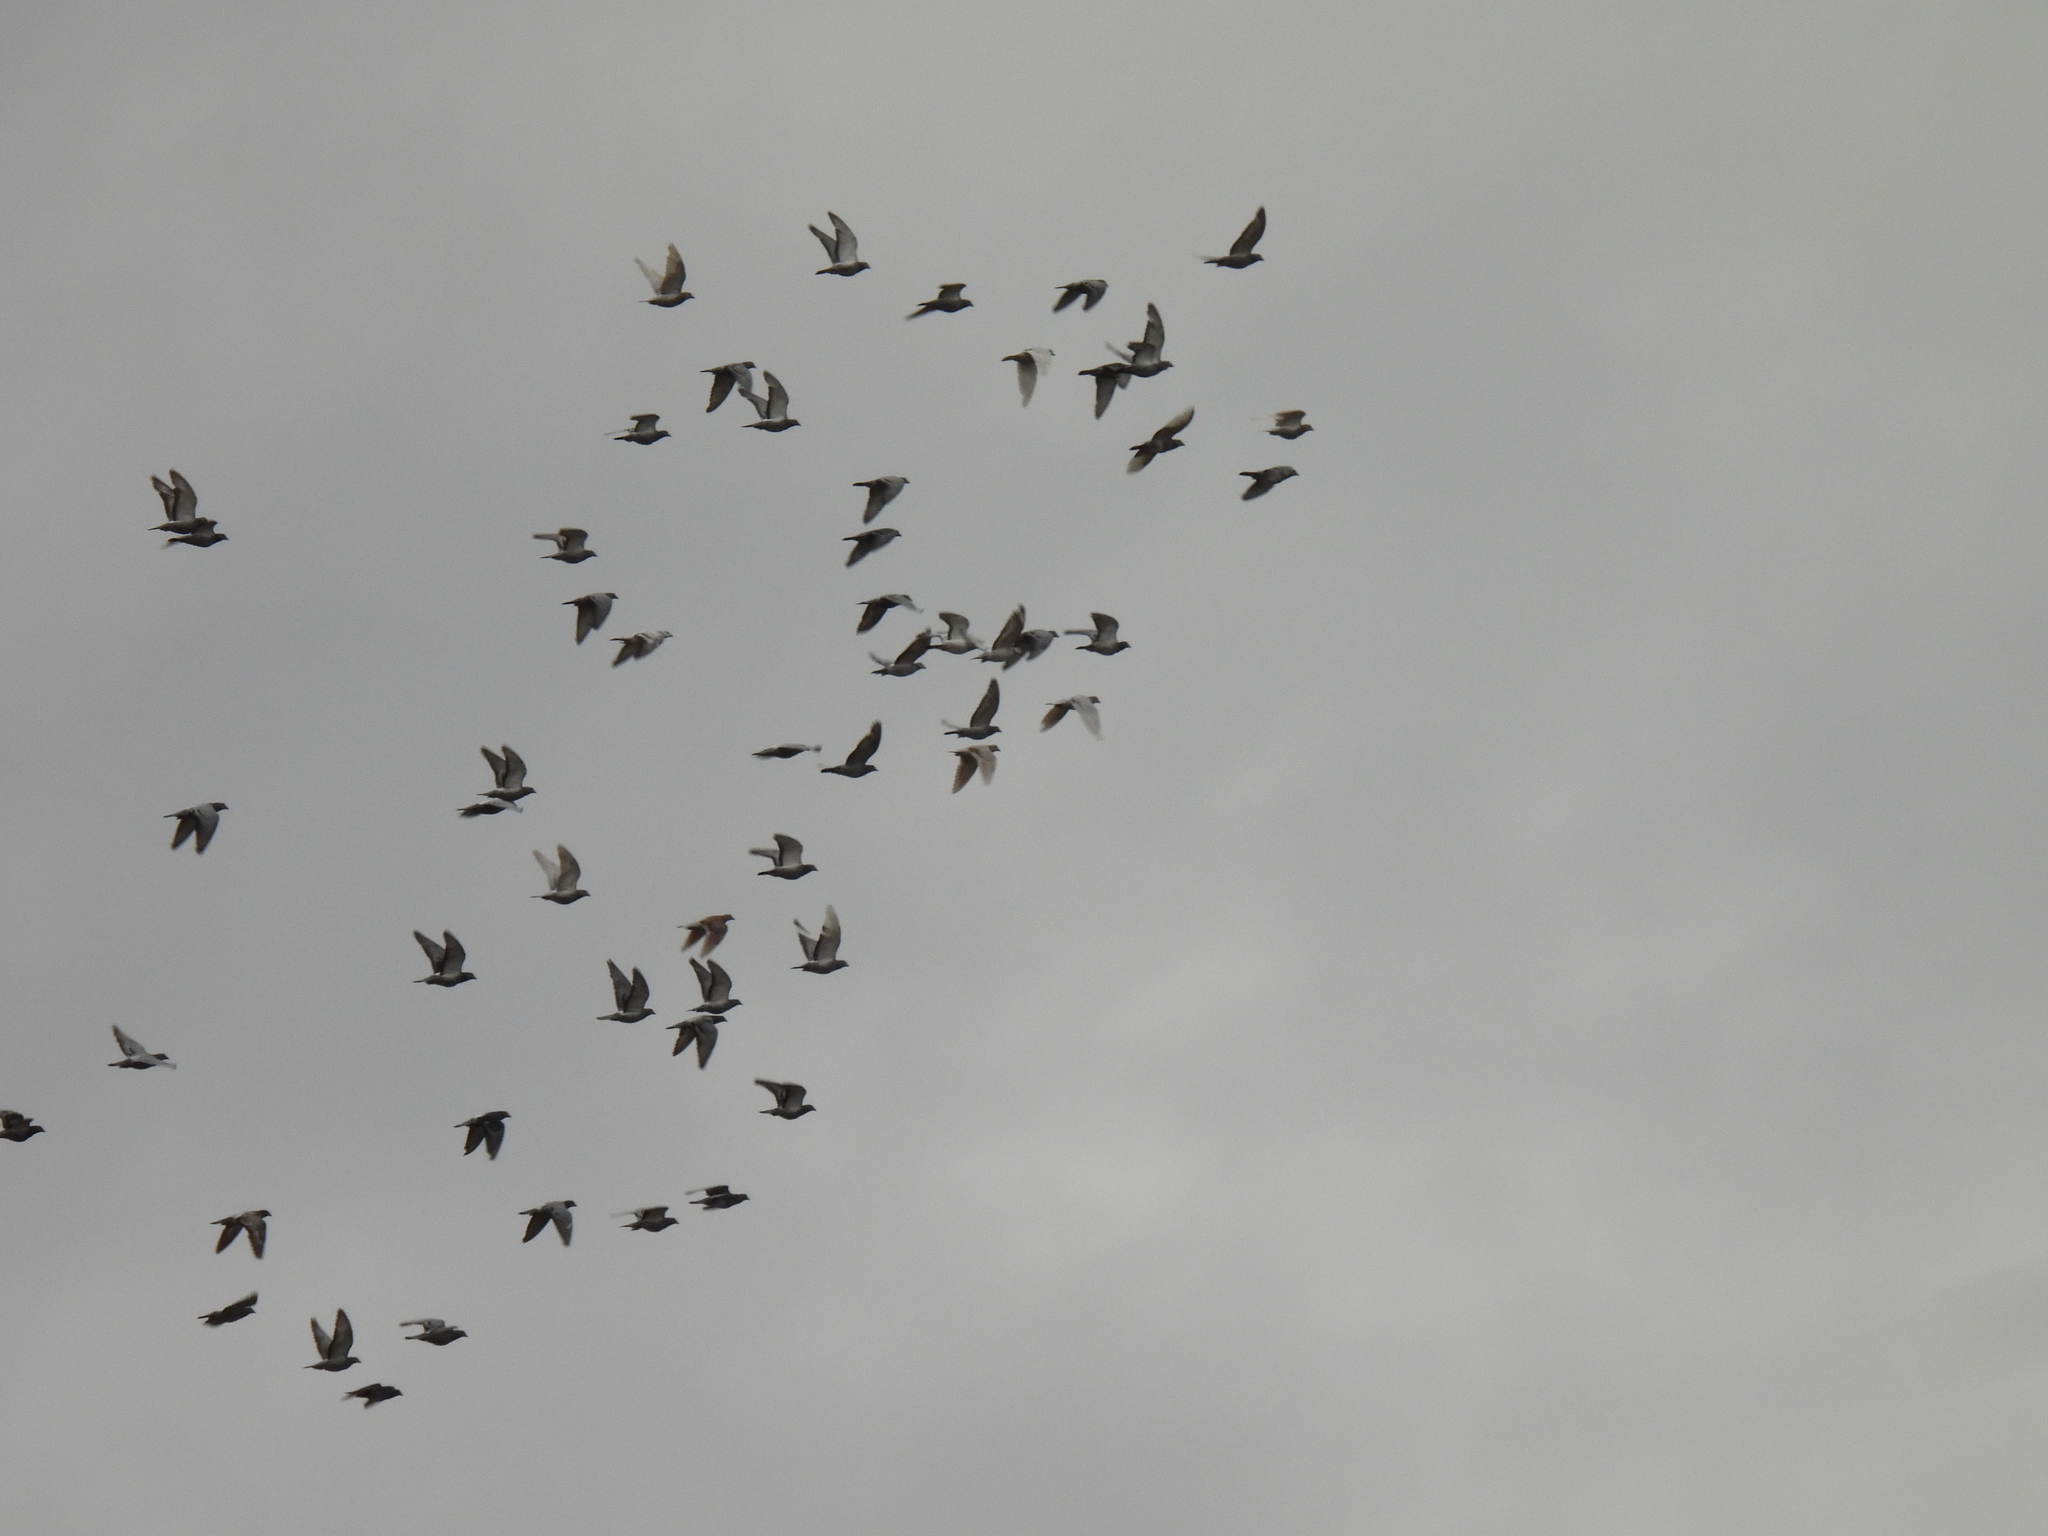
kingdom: Animalia
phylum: Chordata
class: Aves
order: Columbiformes
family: Columbidae
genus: Columba
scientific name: Columba livia
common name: Rock pigeon
